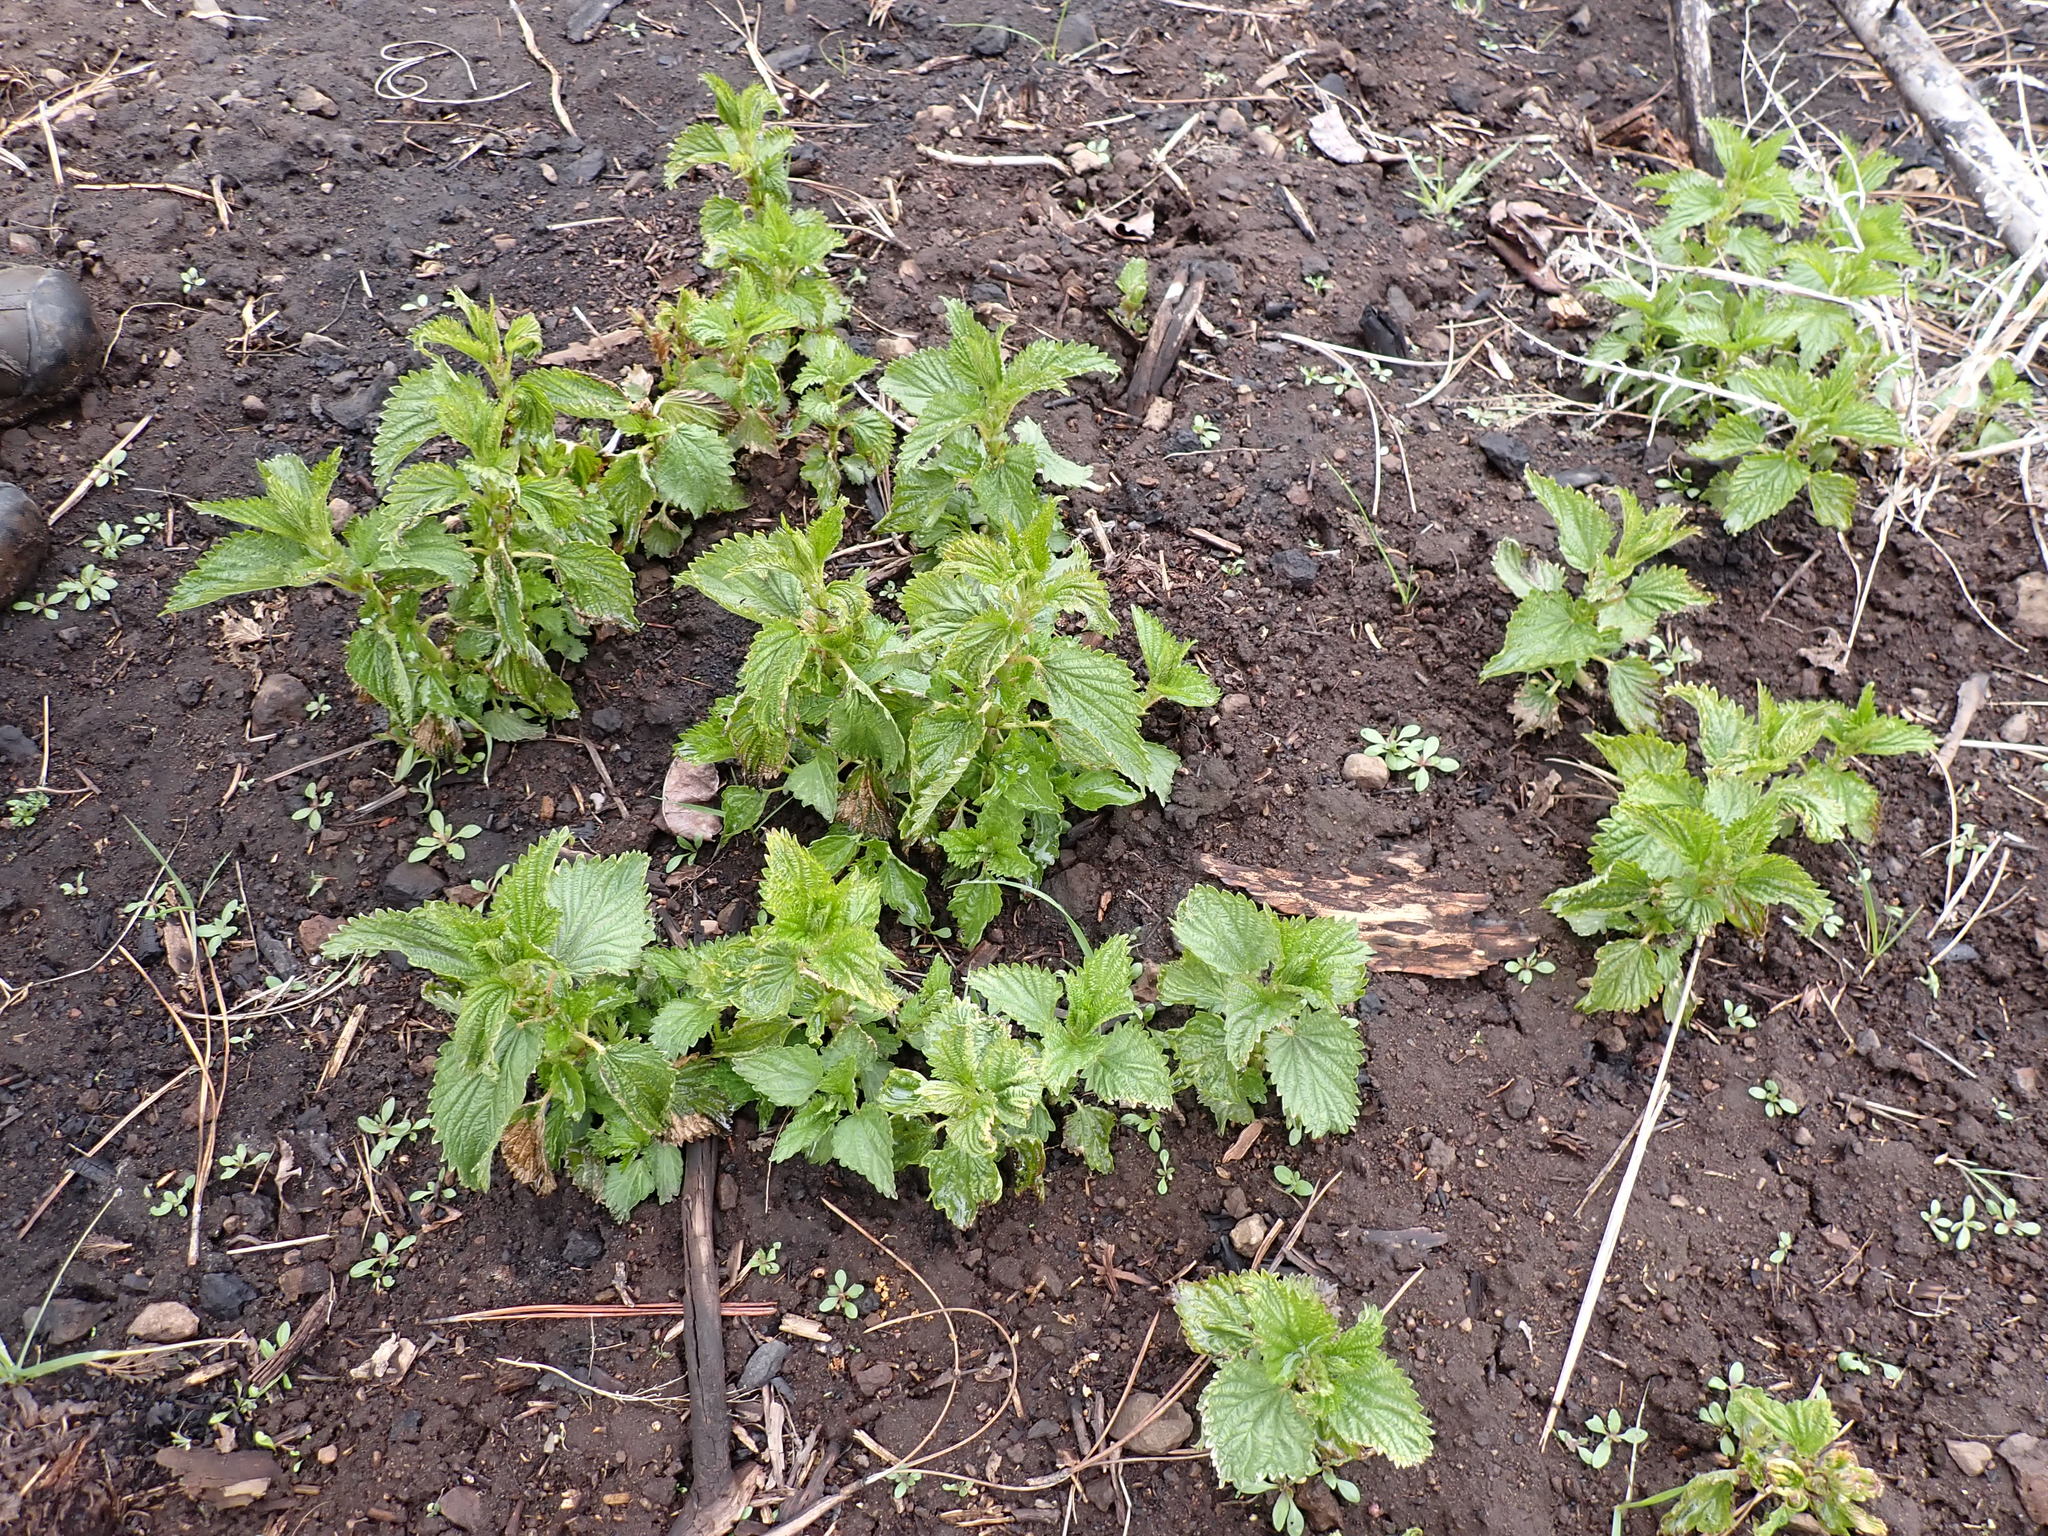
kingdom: Plantae
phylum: Tracheophyta
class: Magnoliopsida
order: Rosales
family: Urticaceae
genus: Urtica
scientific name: Urtica gracilis
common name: Slender stinging nettle
